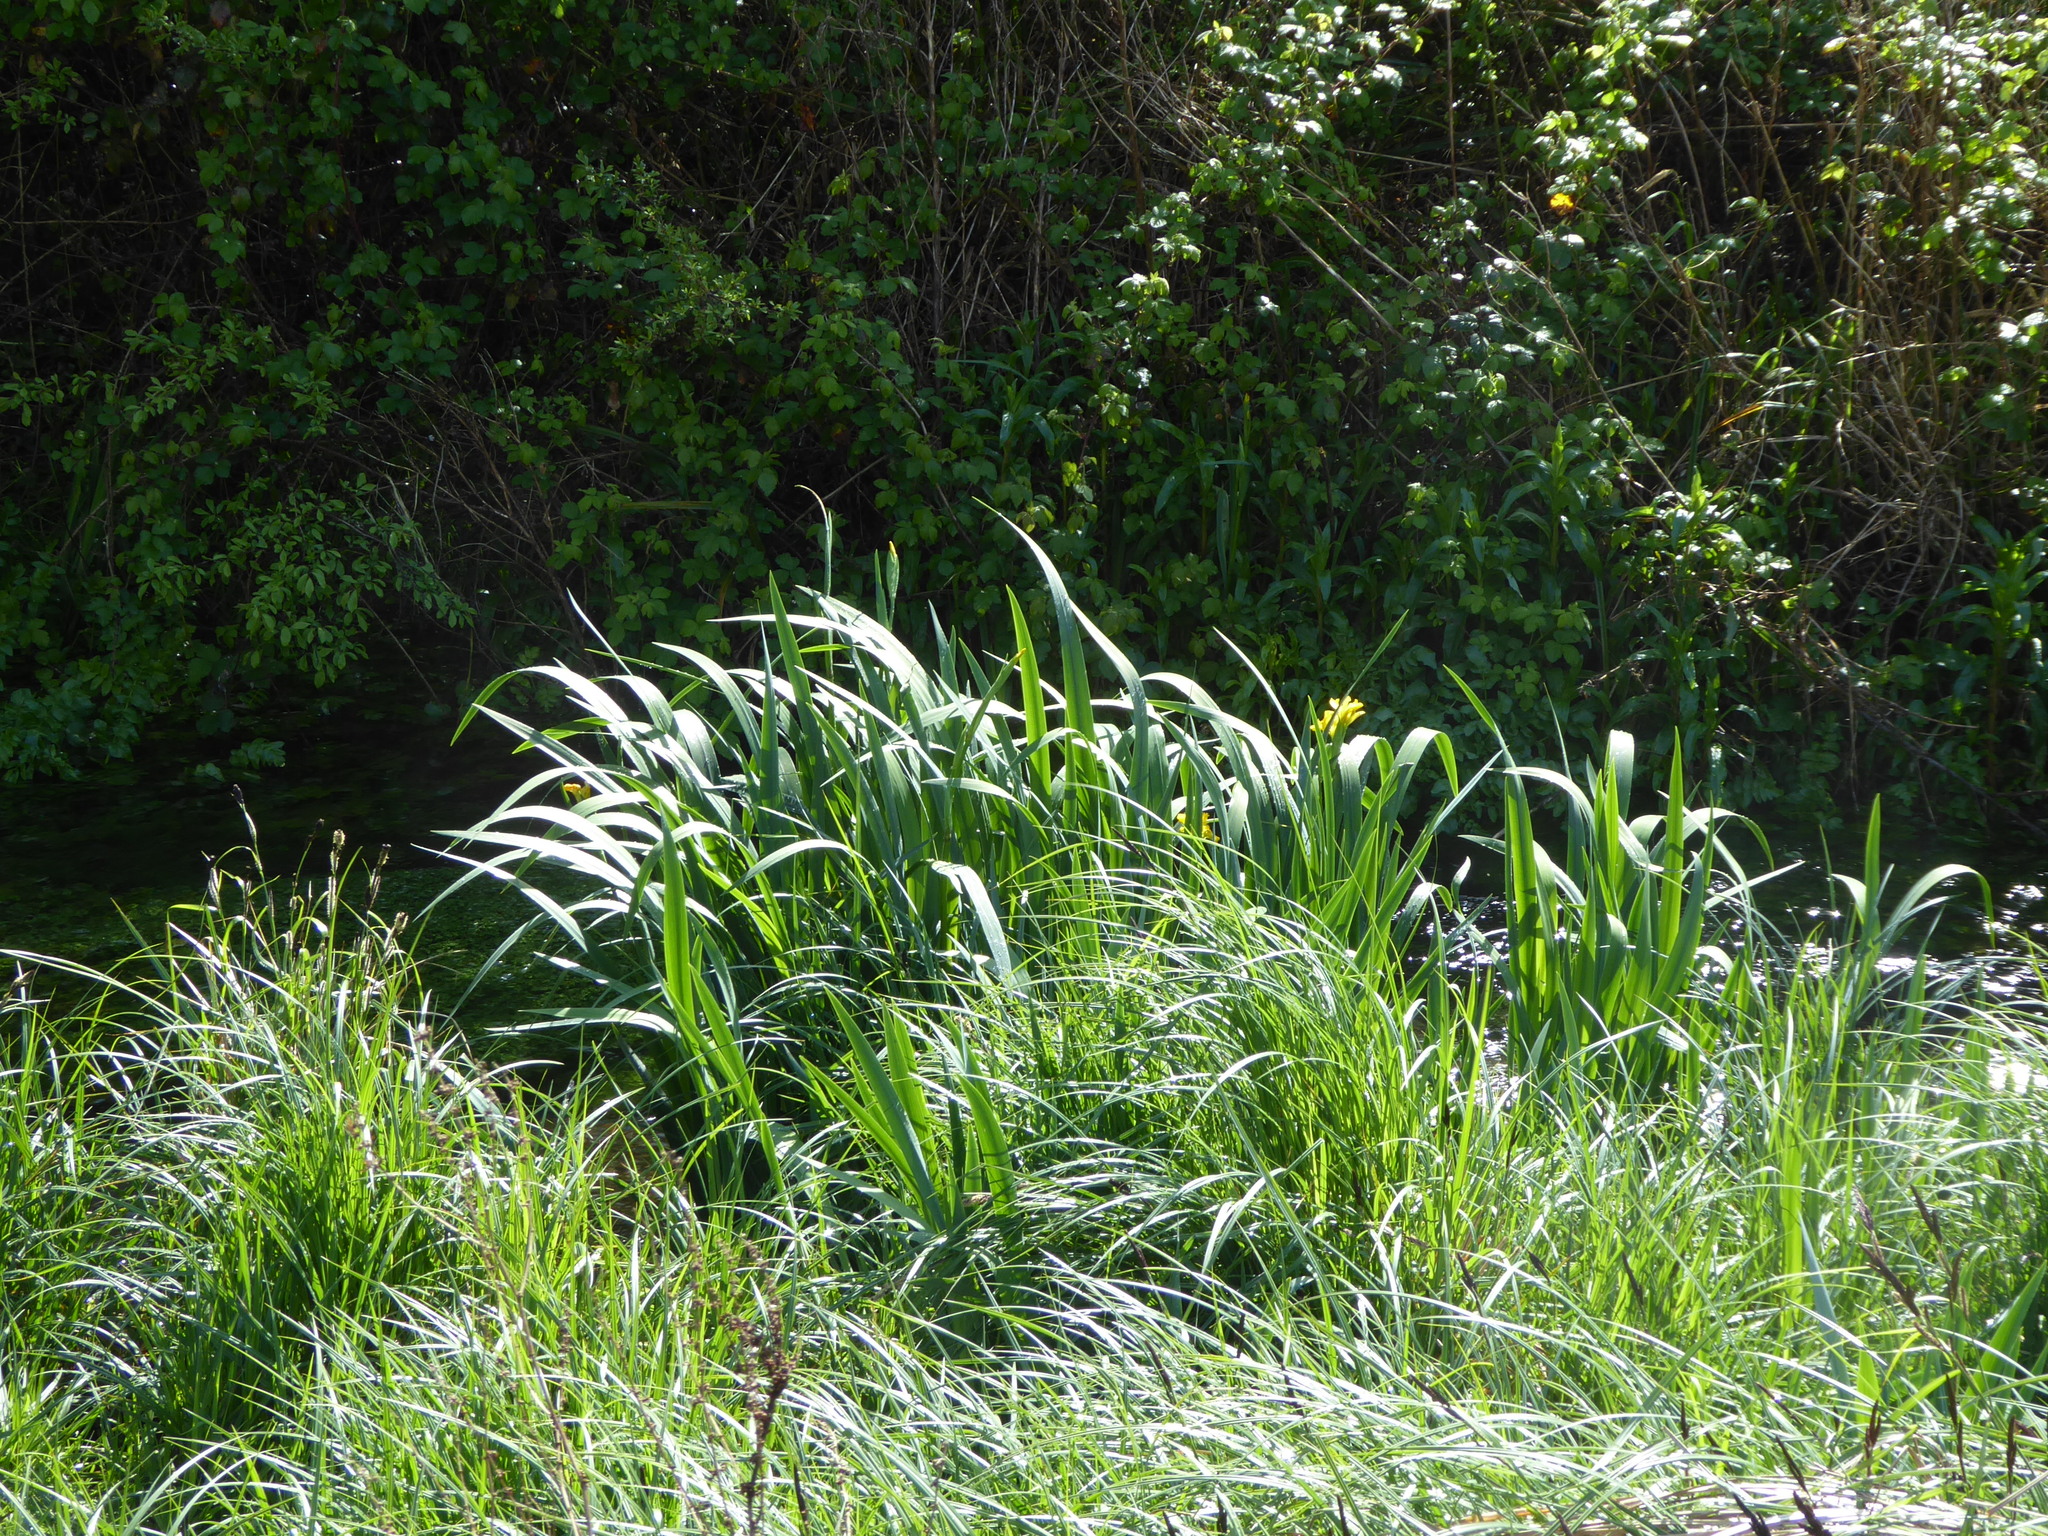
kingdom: Plantae
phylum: Tracheophyta
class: Liliopsida
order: Asparagales
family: Iridaceae
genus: Iris
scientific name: Iris pseudacorus
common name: Yellow flag
